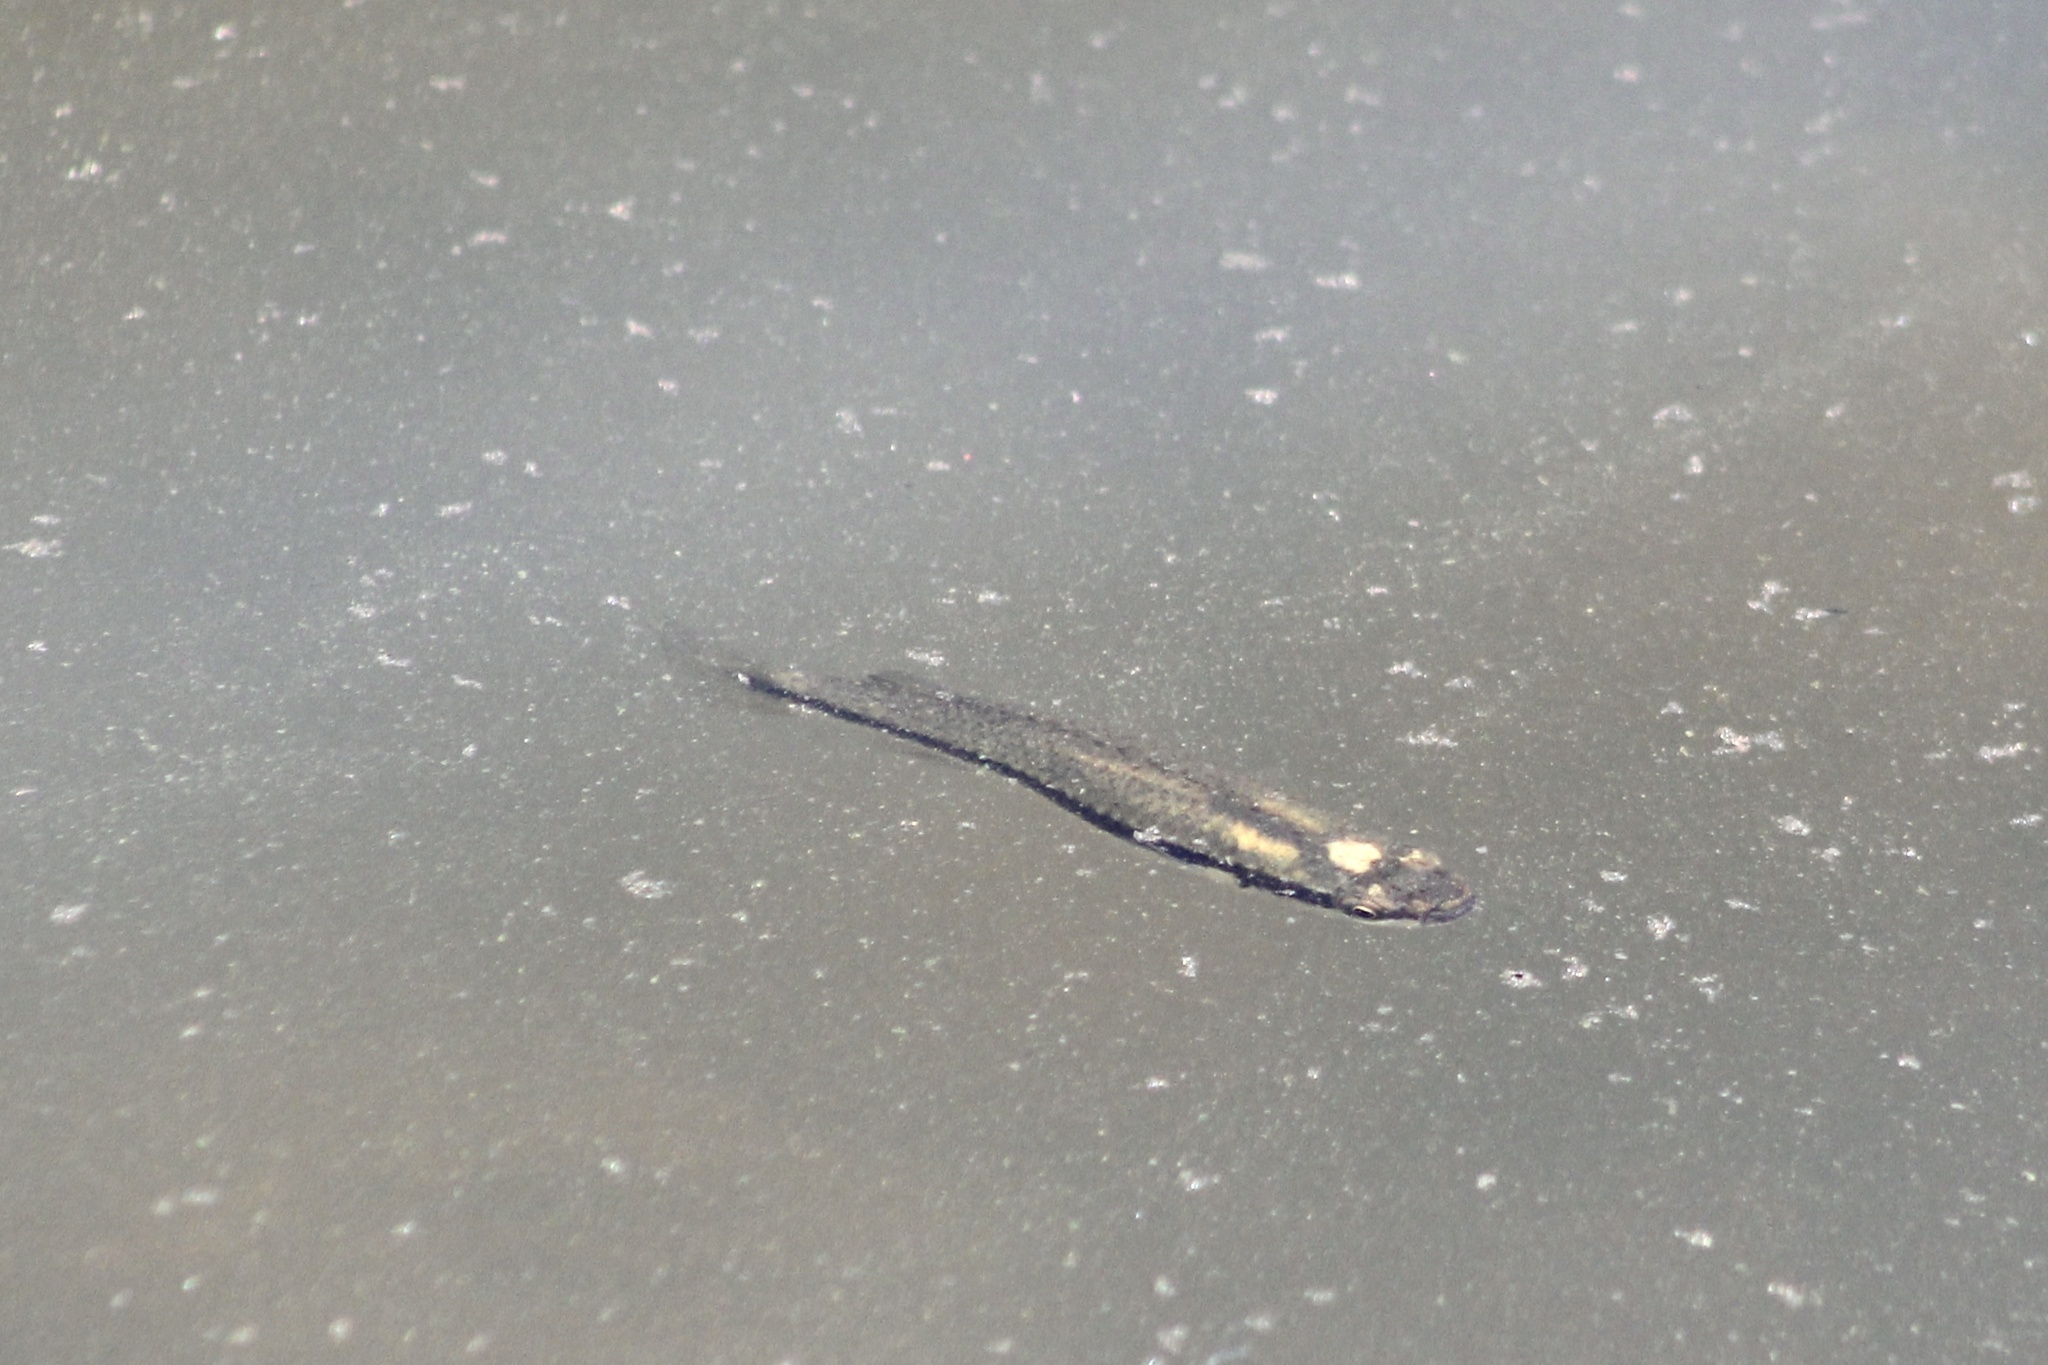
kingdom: Animalia
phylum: Chordata
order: Cyprinodontiformes
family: Fundulidae
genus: Fundulus
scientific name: Fundulus notatus
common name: Blackstripe topminnow
